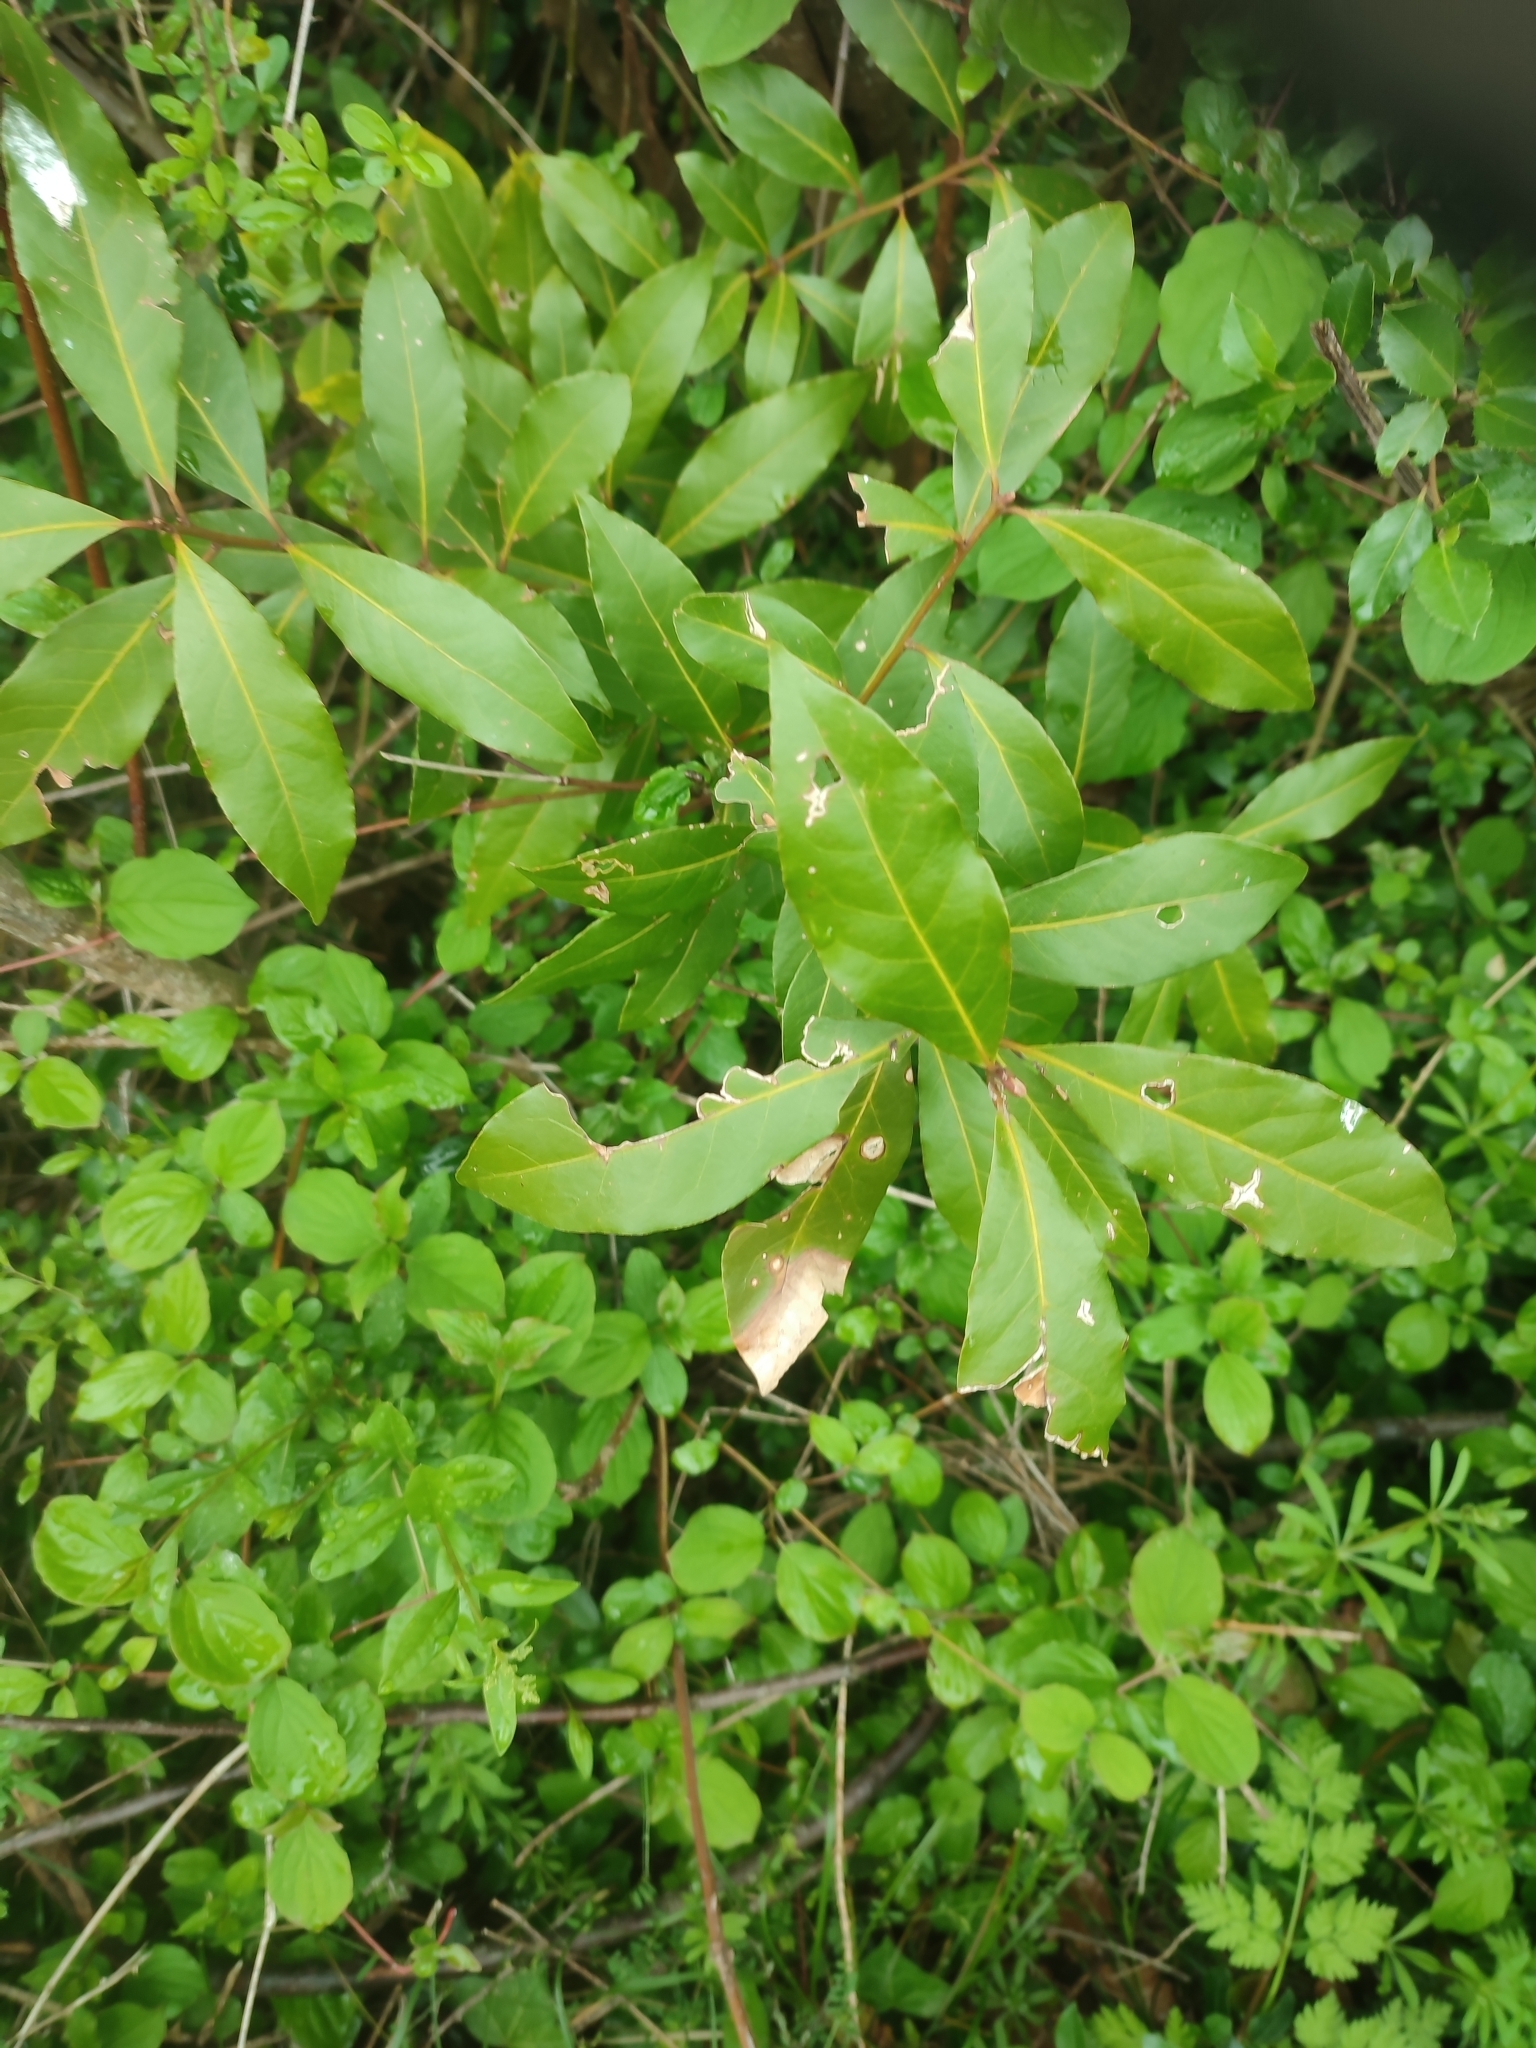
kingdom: Plantae
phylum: Tracheophyta
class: Magnoliopsida
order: Laurales
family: Lauraceae
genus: Laurus
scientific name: Laurus nobilis
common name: Bay
